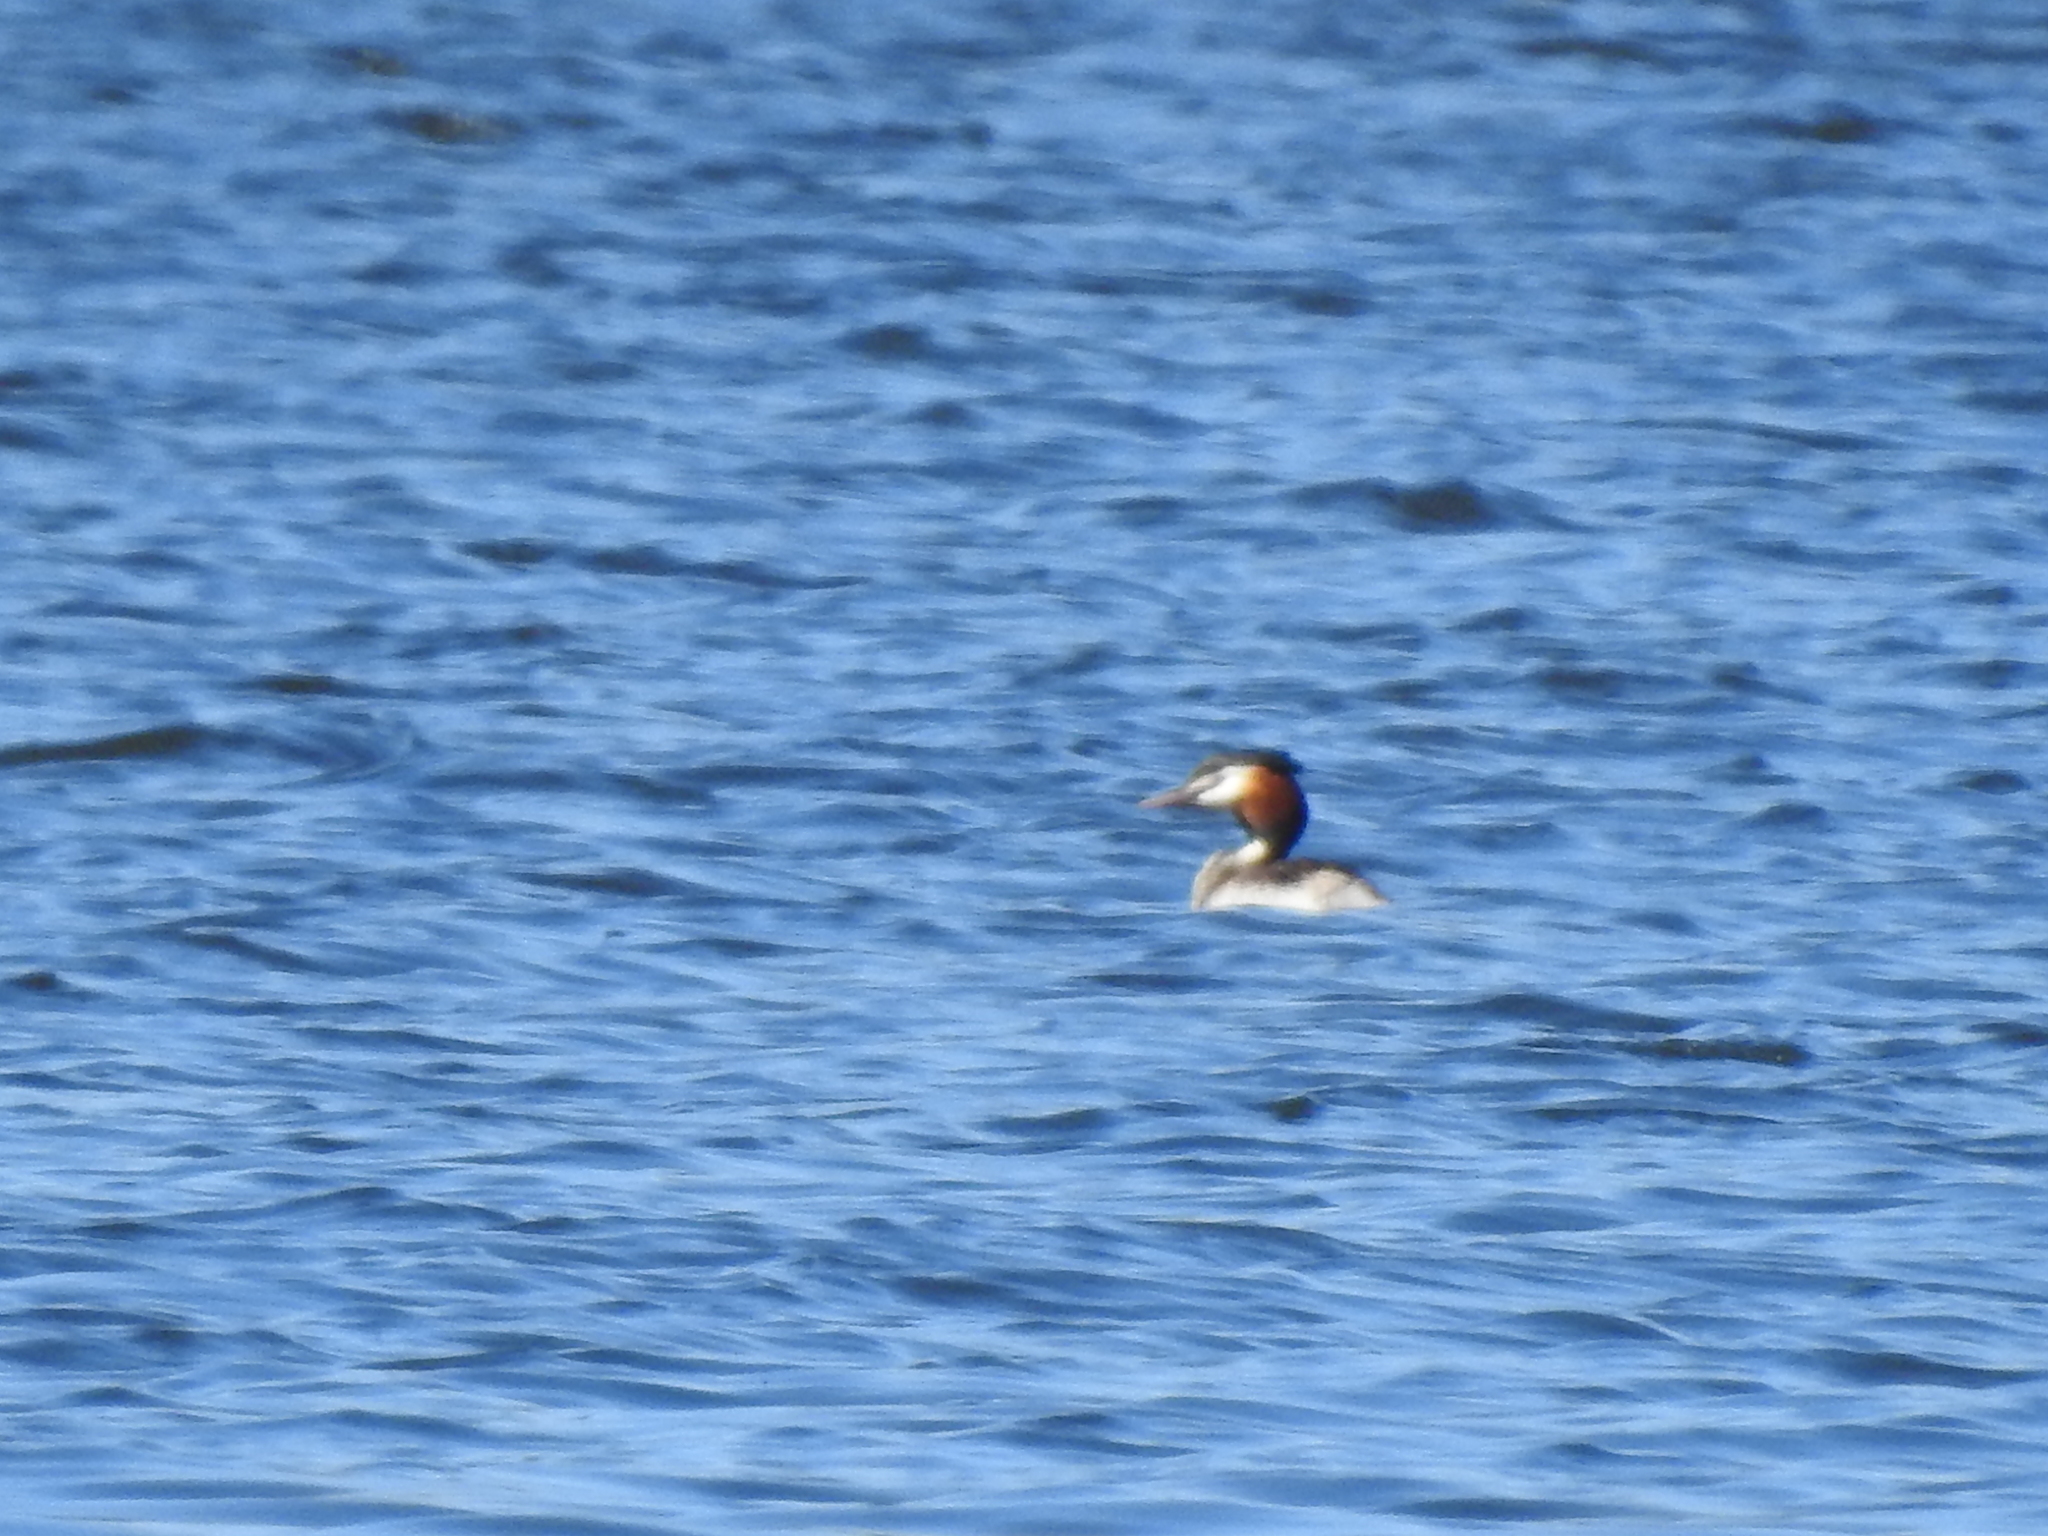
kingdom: Animalia
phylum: Chordata
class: Aves
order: Podicipediformes
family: Podicipedidae
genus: Podiceps
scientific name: Podiceps cristatus
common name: Great crested grebe
